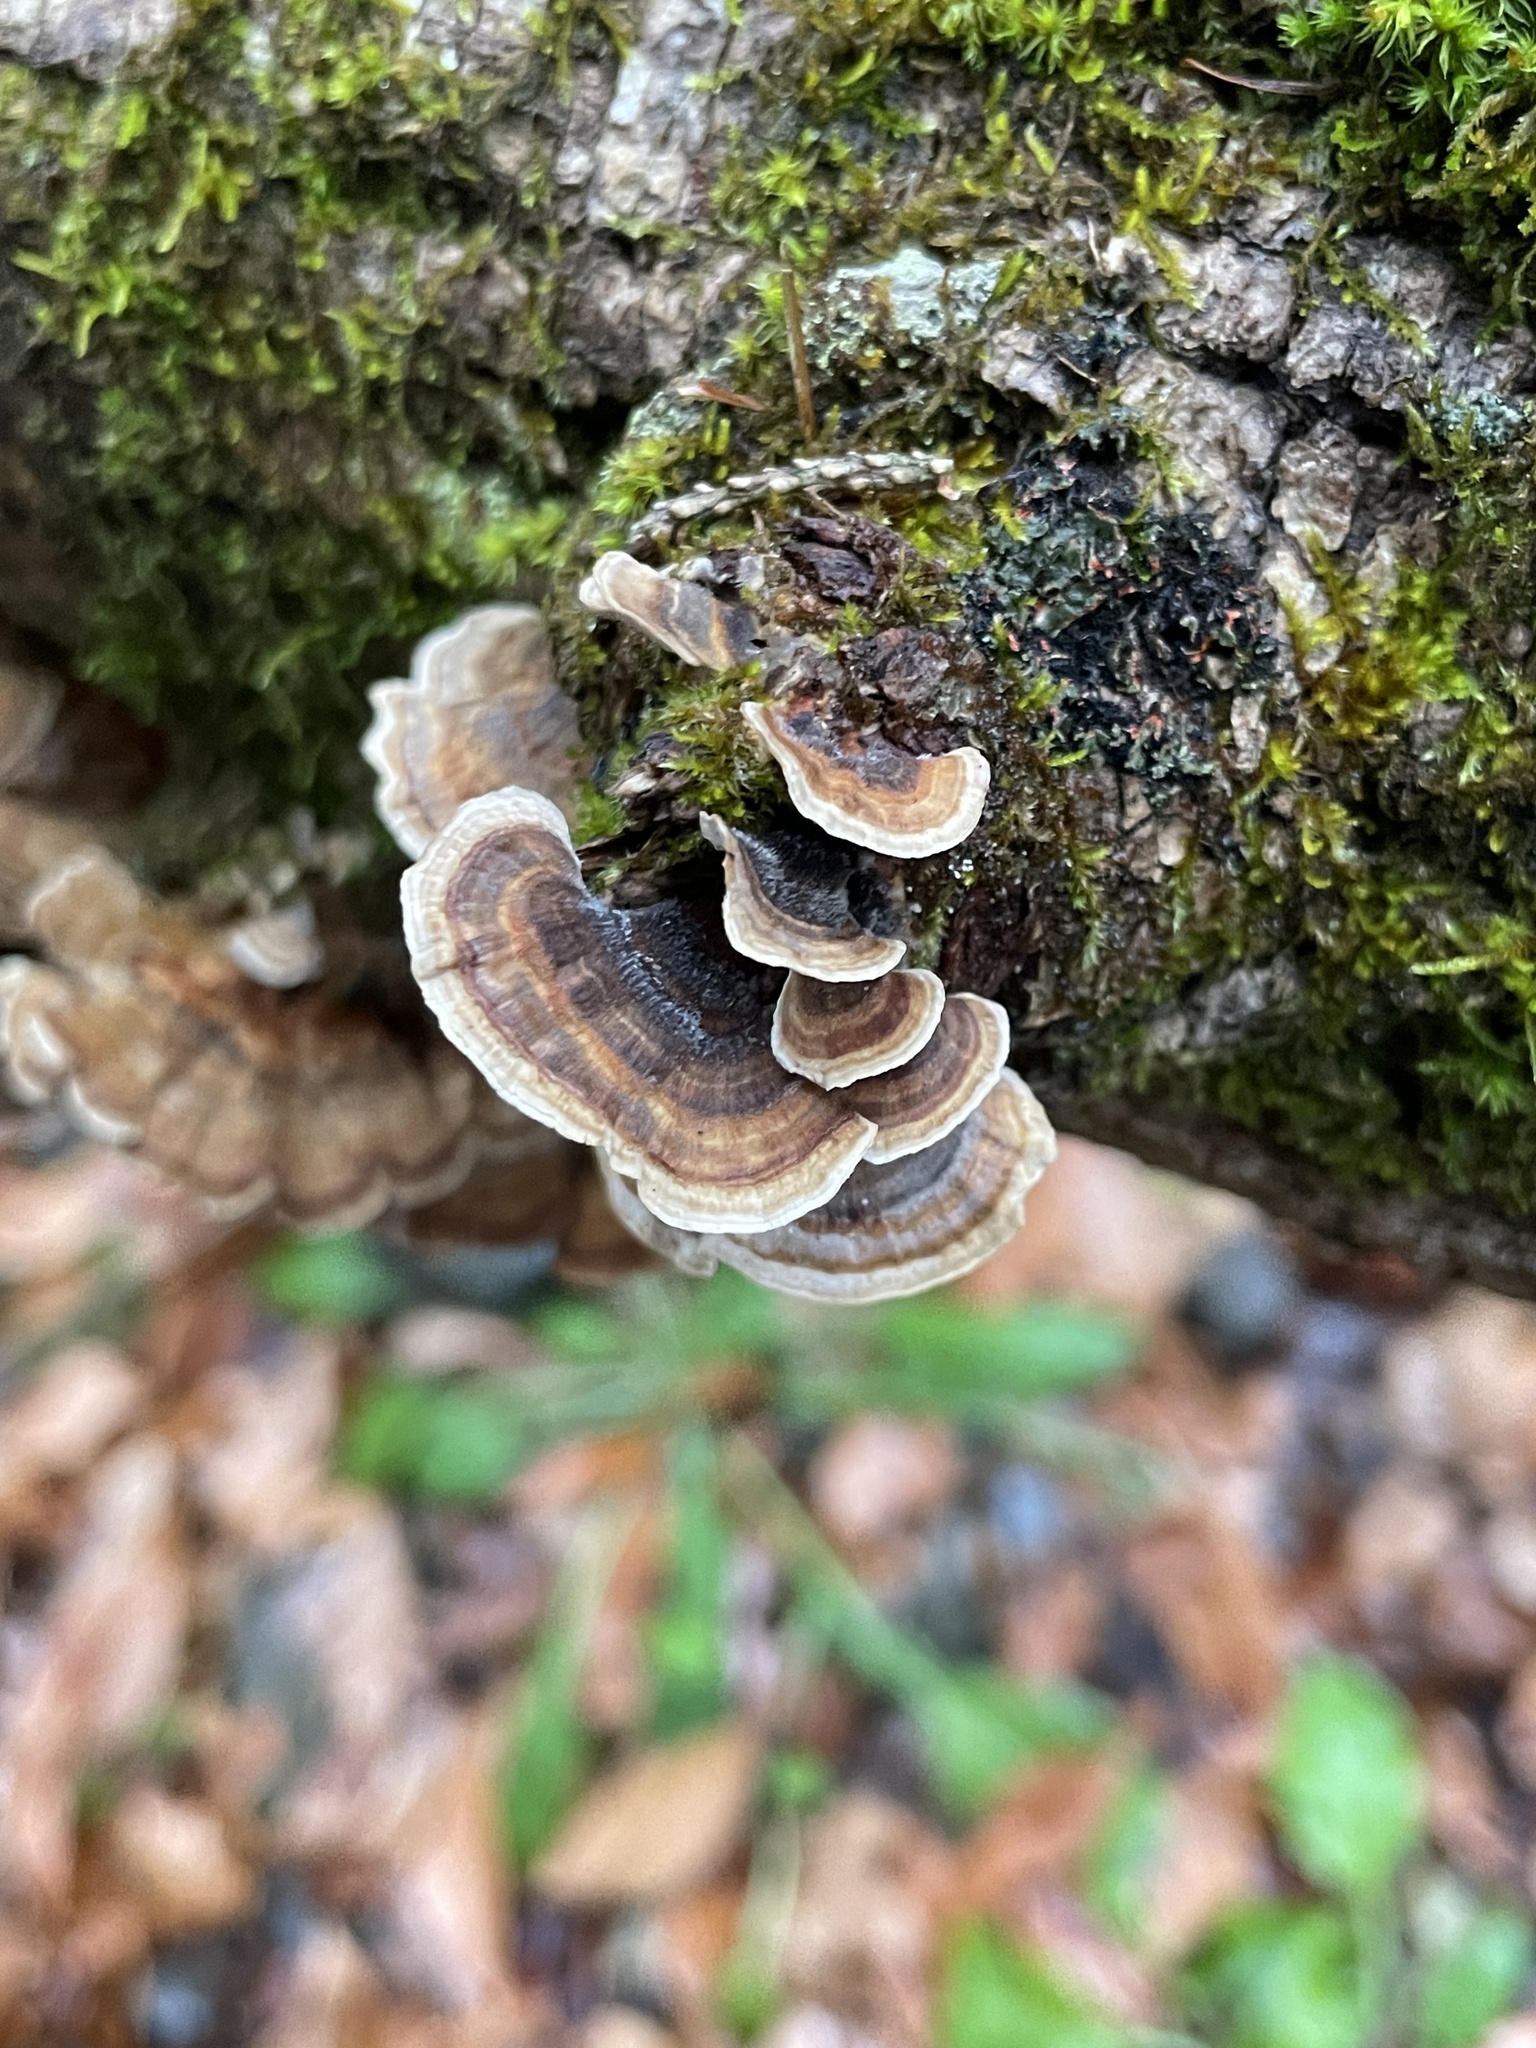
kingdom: Fungi
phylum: Basidiomycota
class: Agaricomycetes
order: Polyporales
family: Polyporaceae
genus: Trametes
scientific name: Trametes versicolor
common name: Turkeytail
